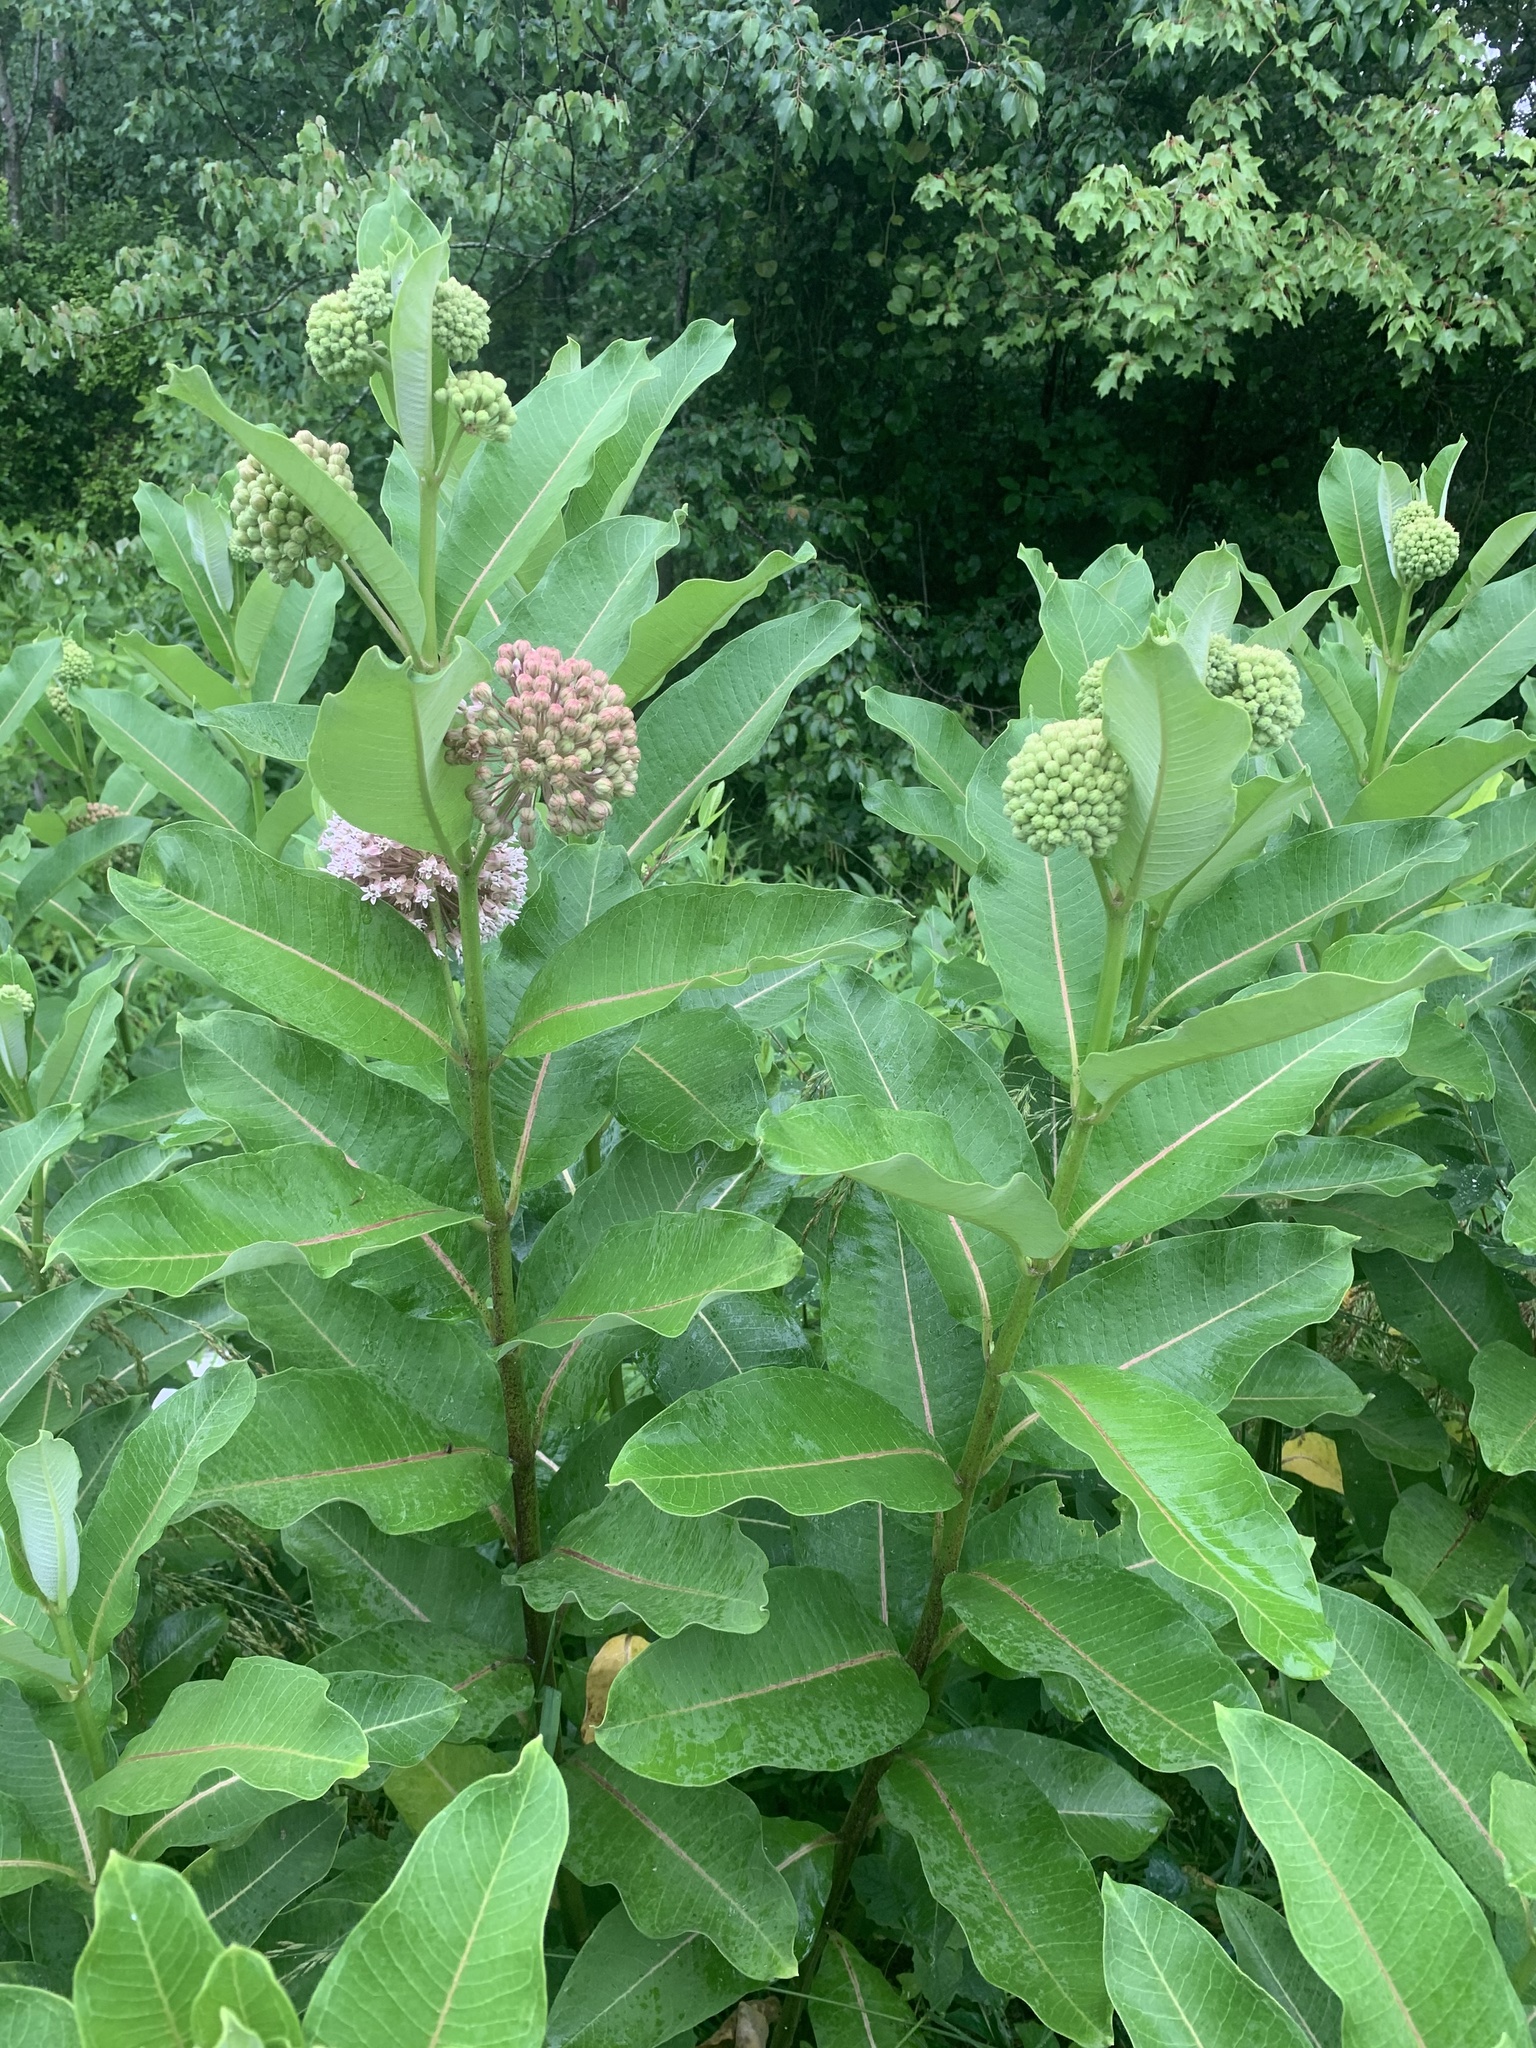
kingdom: Plantae
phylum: Tracheophyta
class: Magnoliopsida
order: Gentianales
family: Apocynaceae
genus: Asclepias
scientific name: Asclepias syriaca
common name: Common milkweed
